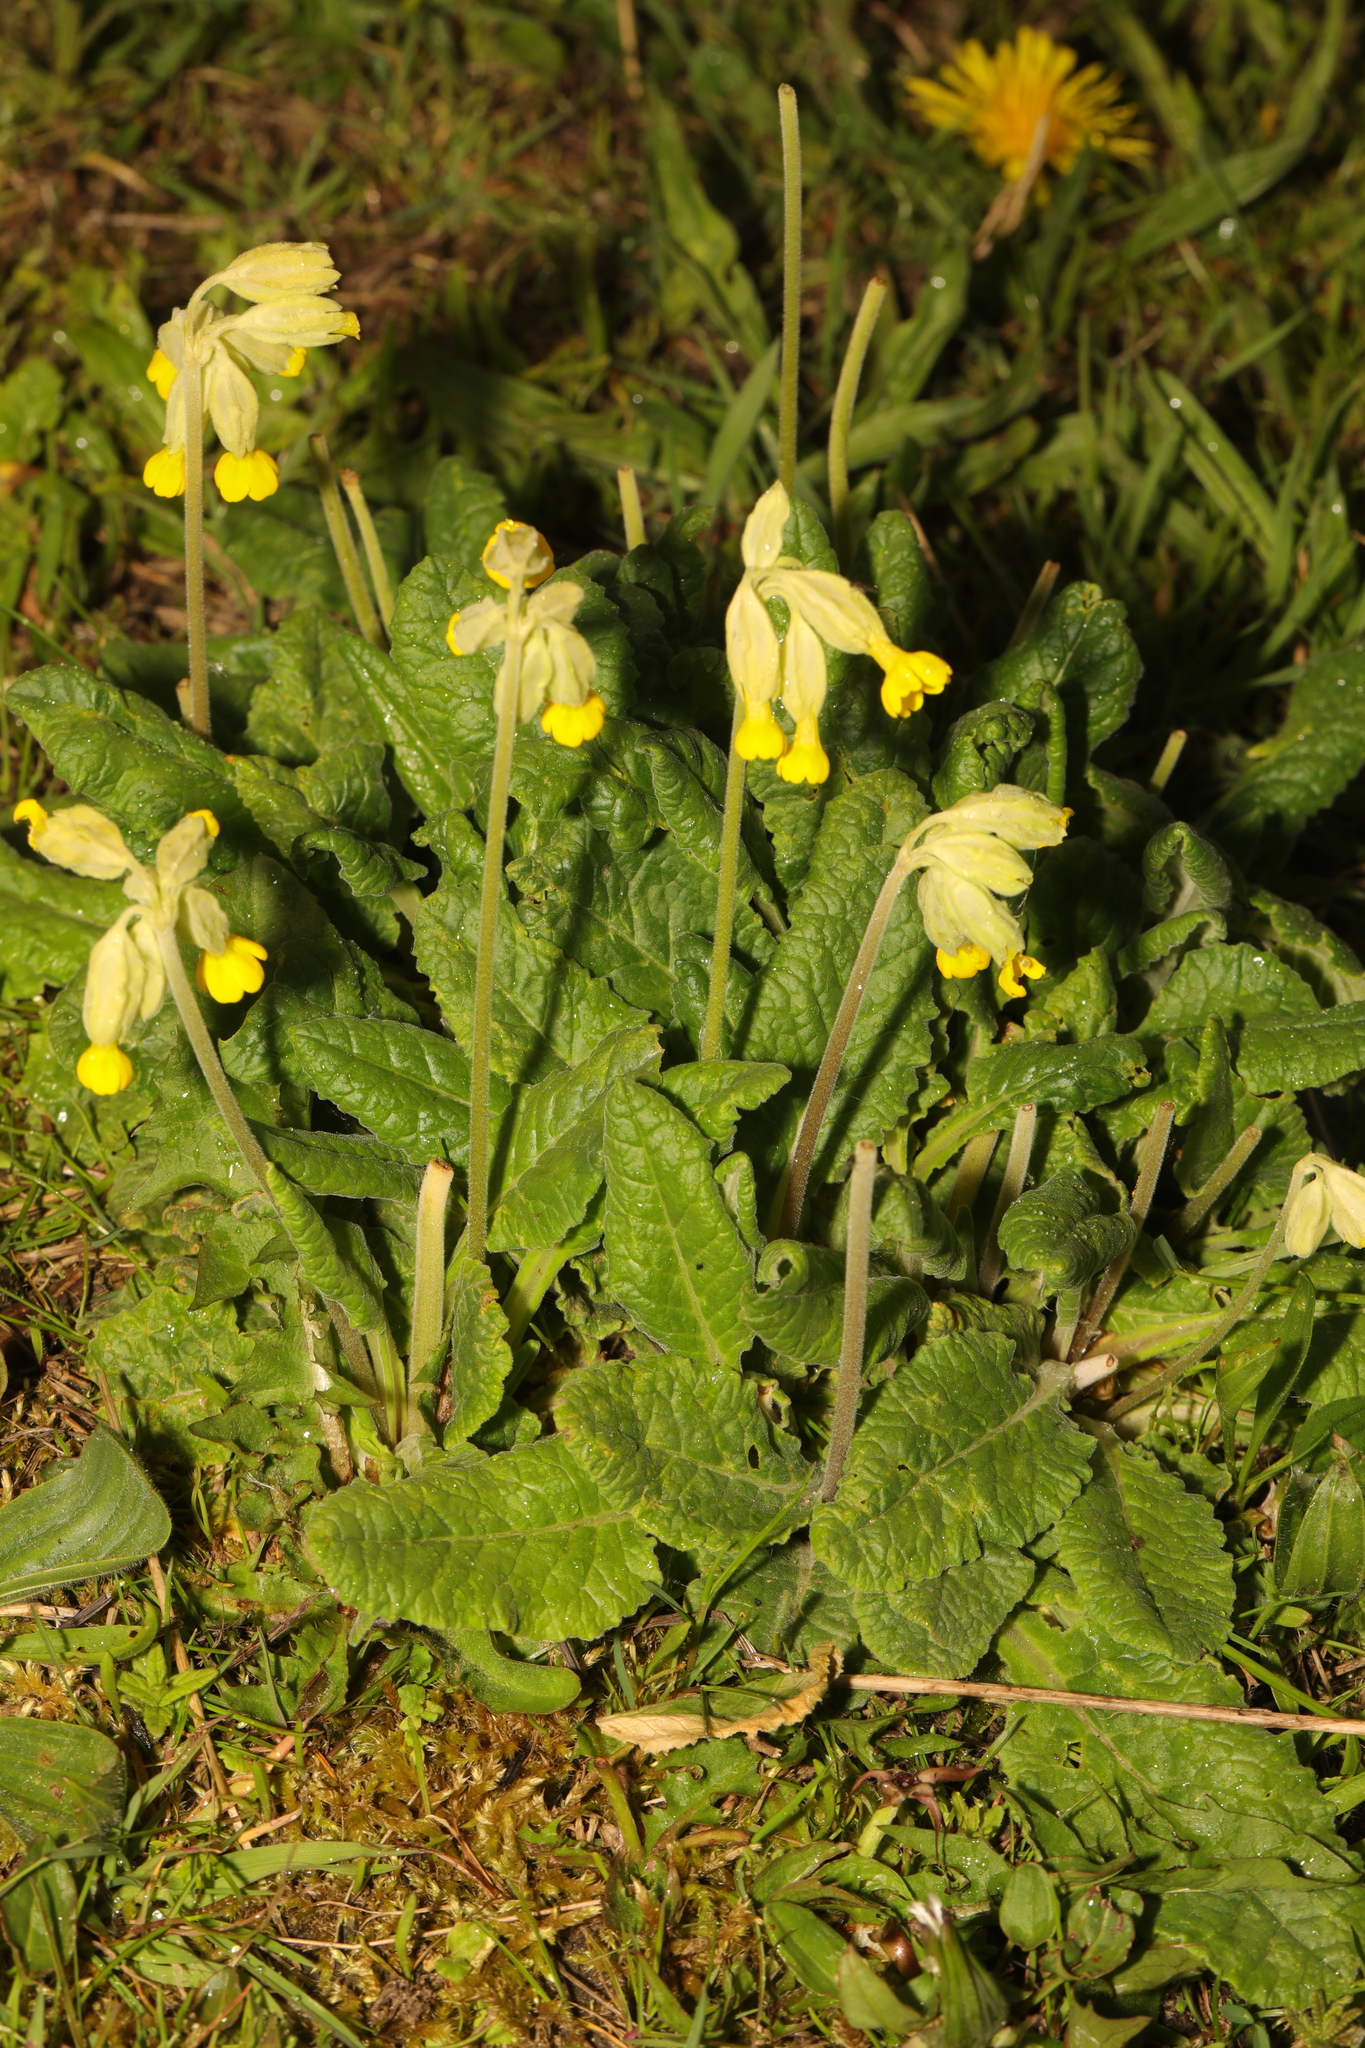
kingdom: Plantae
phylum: Tracheophyta
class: Magnoliopsida
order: Ericales
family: Primulaceae
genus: Primula
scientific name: Primula veris
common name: Cowslip
